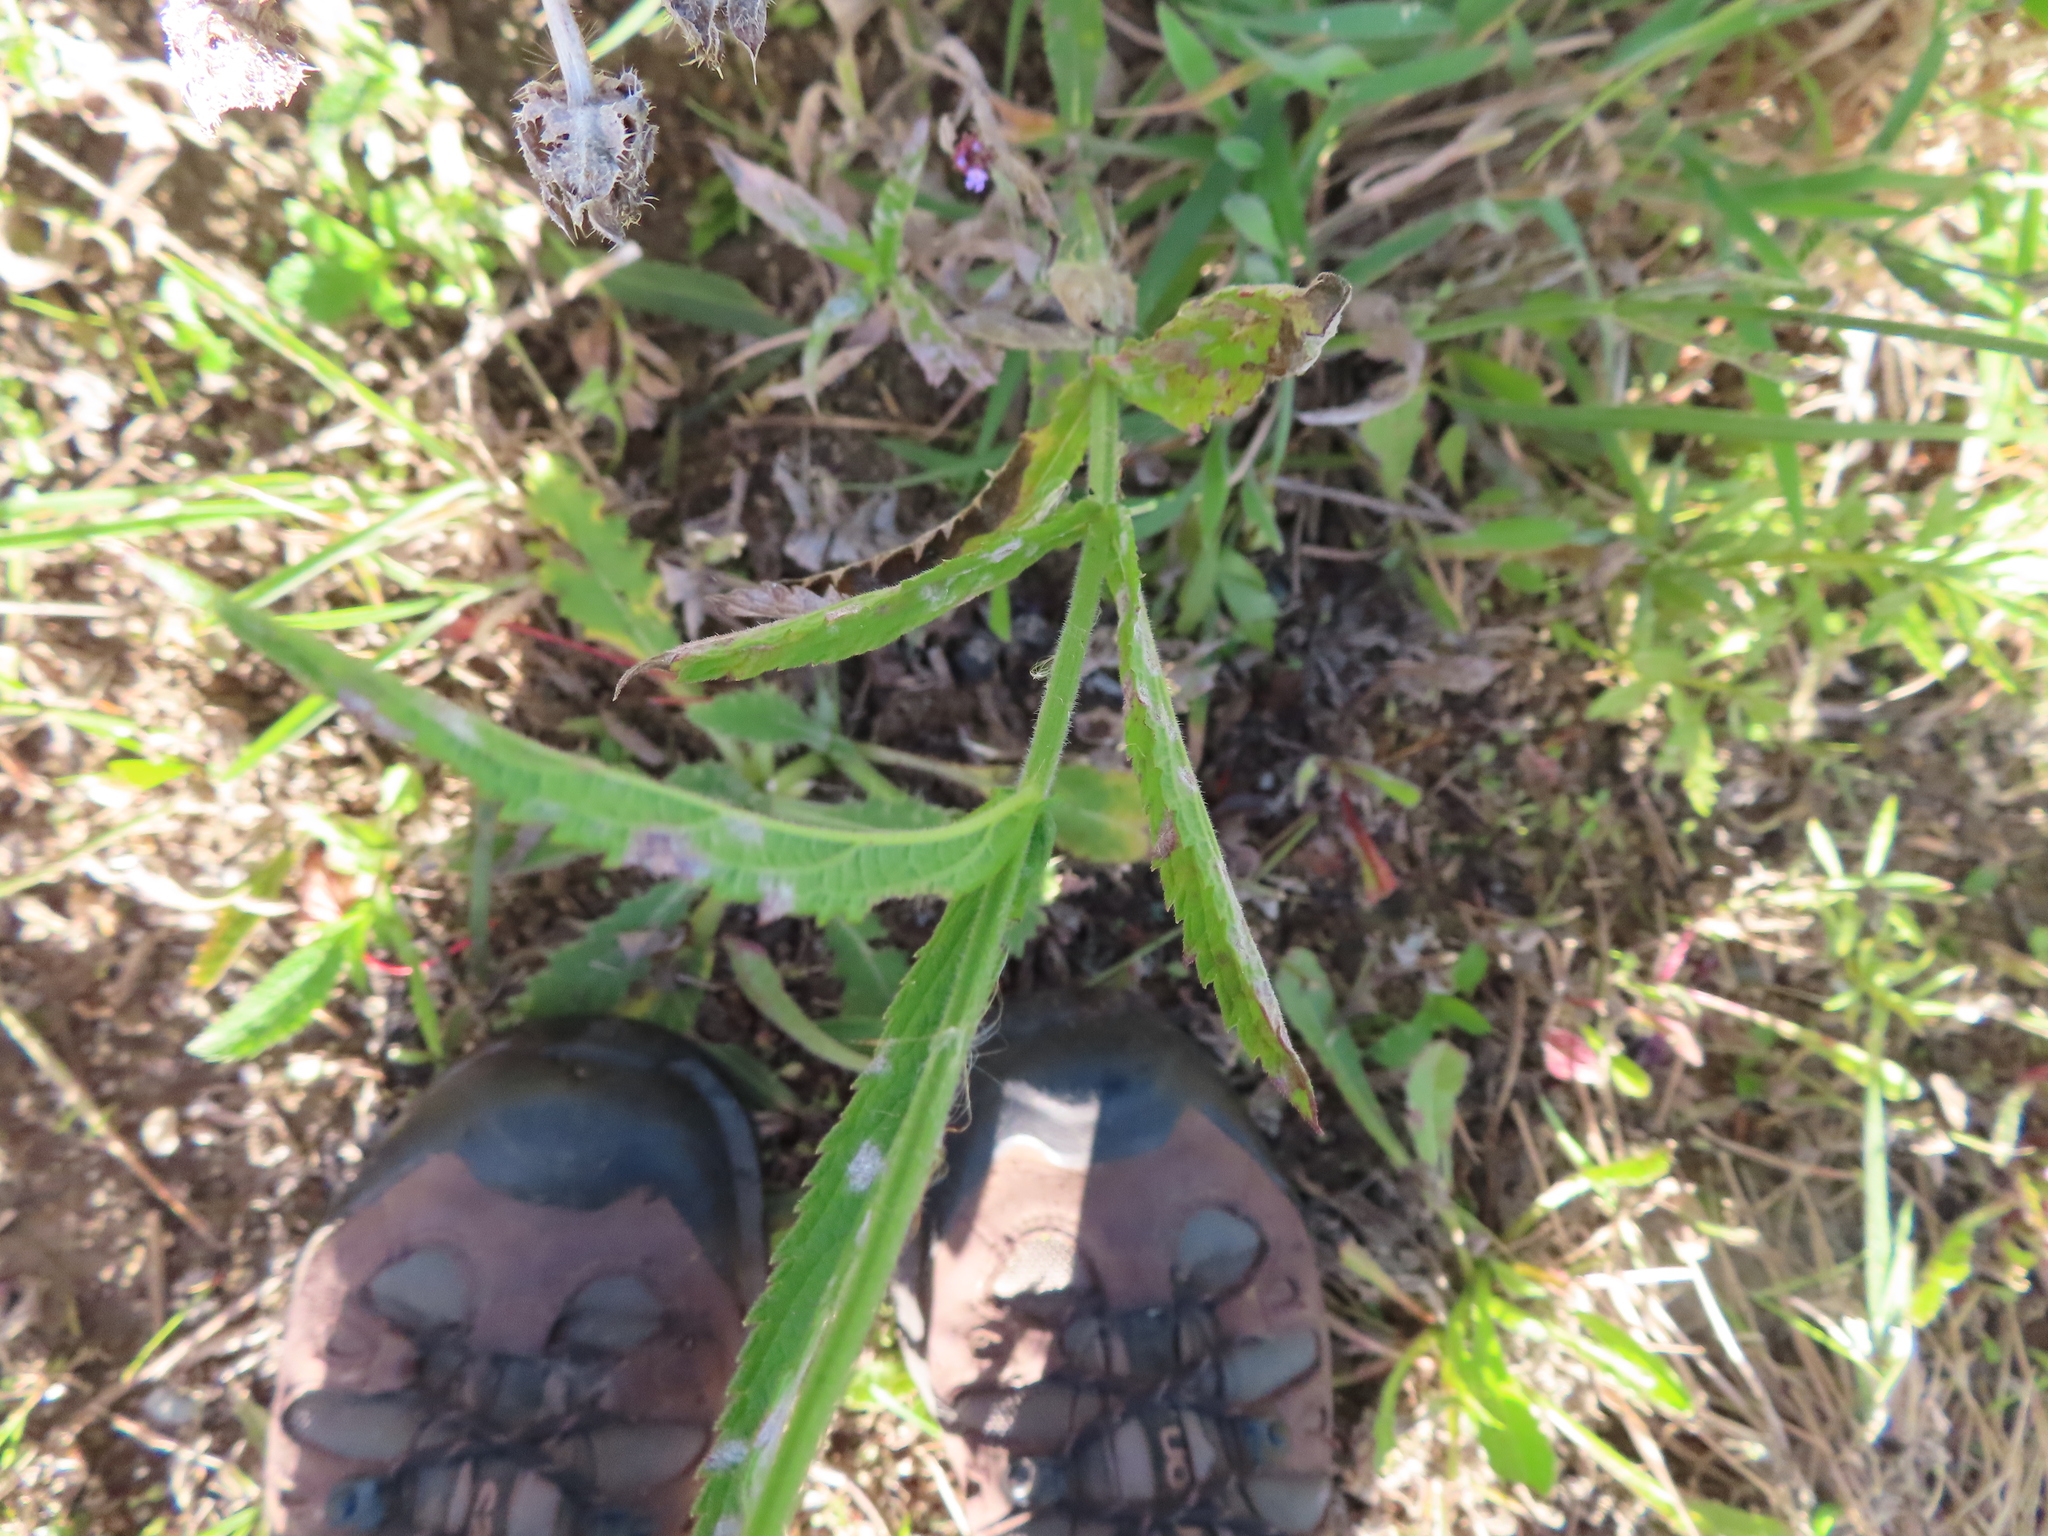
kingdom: Plantae
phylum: Tracheophyta
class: Magnoliopsida
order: Lamiales
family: Verbenaceae
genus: Verbena
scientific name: Verbena bonariensis
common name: Purpletop vervain
